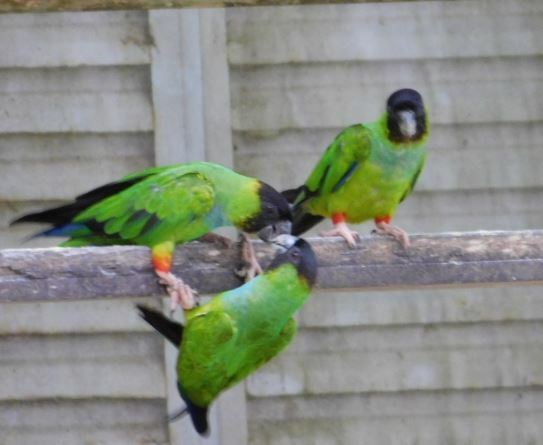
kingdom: Animalia
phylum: Chordata
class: Aves
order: Psittaciformes
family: Psittacidae
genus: Nandayus
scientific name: Nandayus nenday
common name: Nanday parakeet
